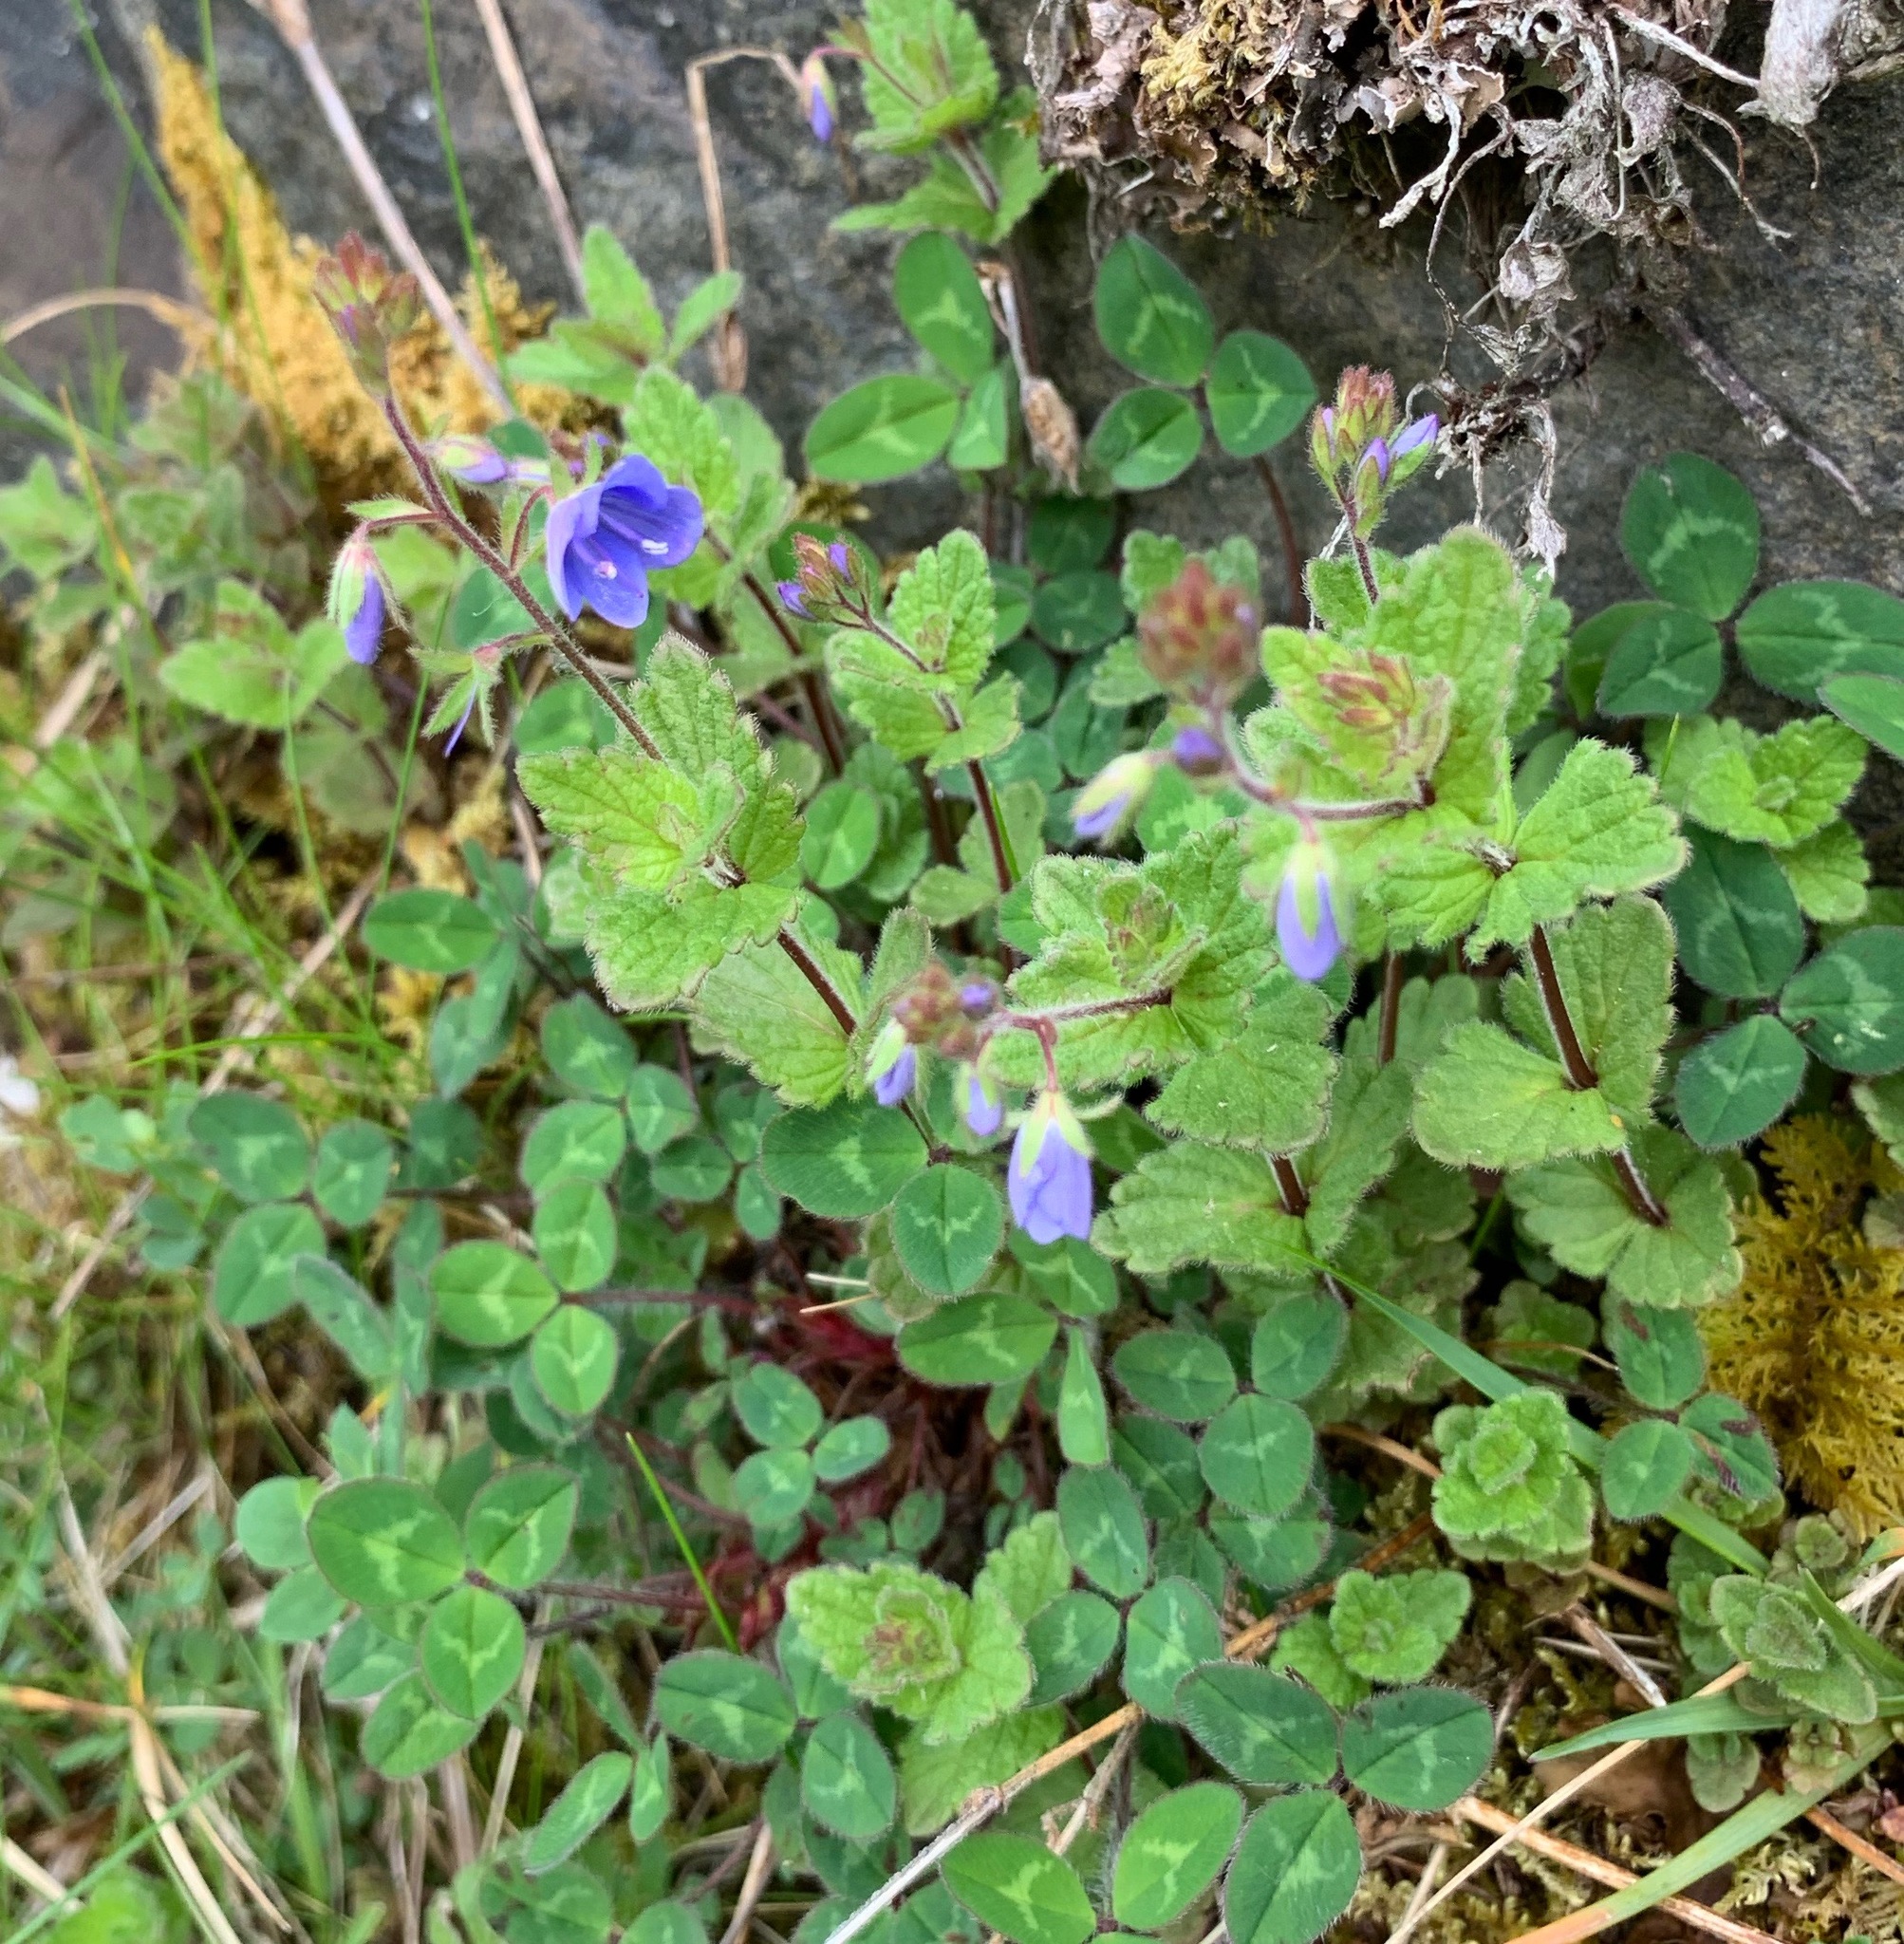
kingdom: Plantae
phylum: Tracheophyta
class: Magnoliopsida
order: Lamiales
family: Plantaginaceae
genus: Veronica
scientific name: Veronica chamaedrys
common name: Germander speedwell
